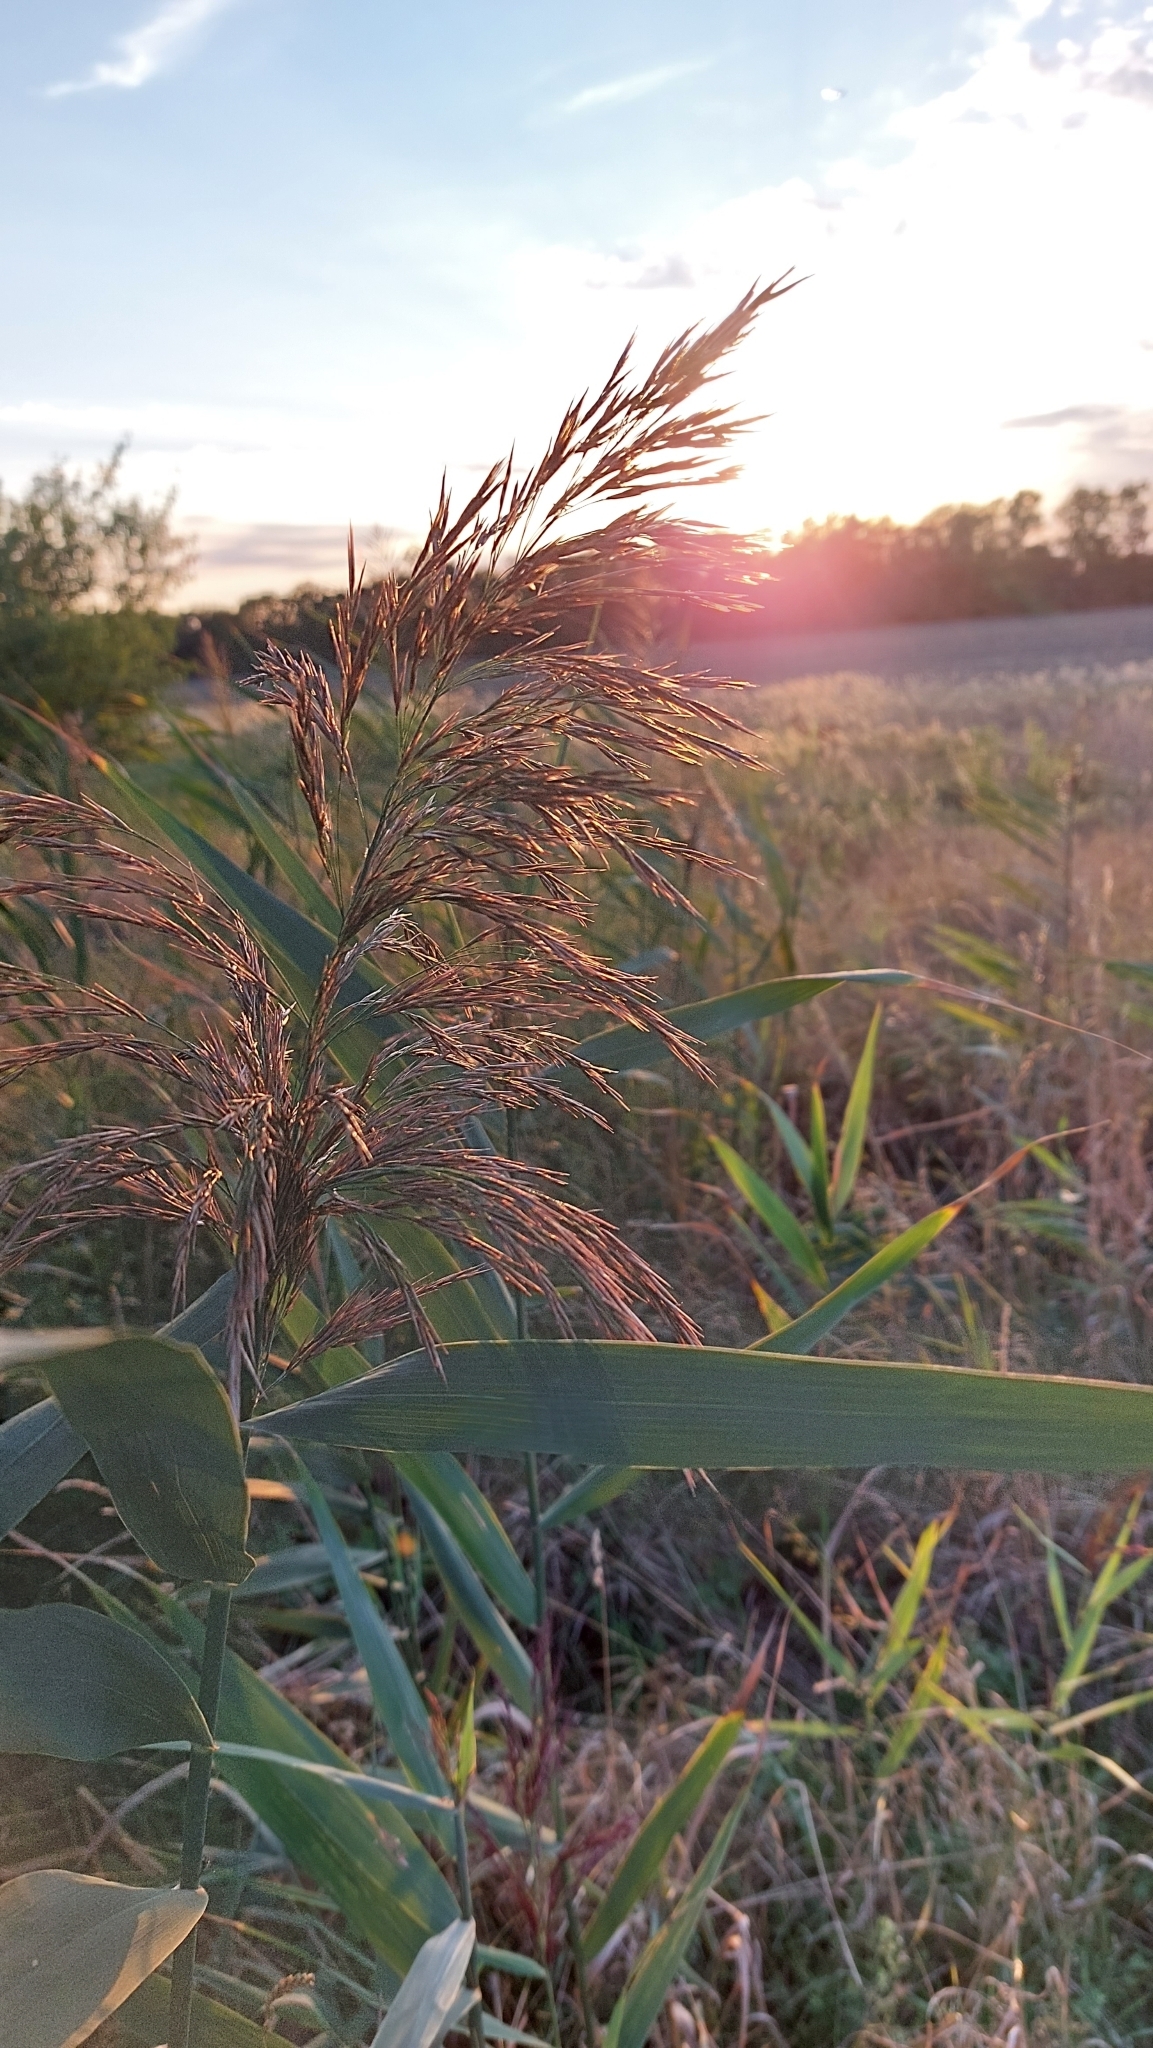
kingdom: Plantae
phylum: Tracheophyta
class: Liliopsida
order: Poales
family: Poaceae
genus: Phragmites
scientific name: Phragmites australis
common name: Common reed
